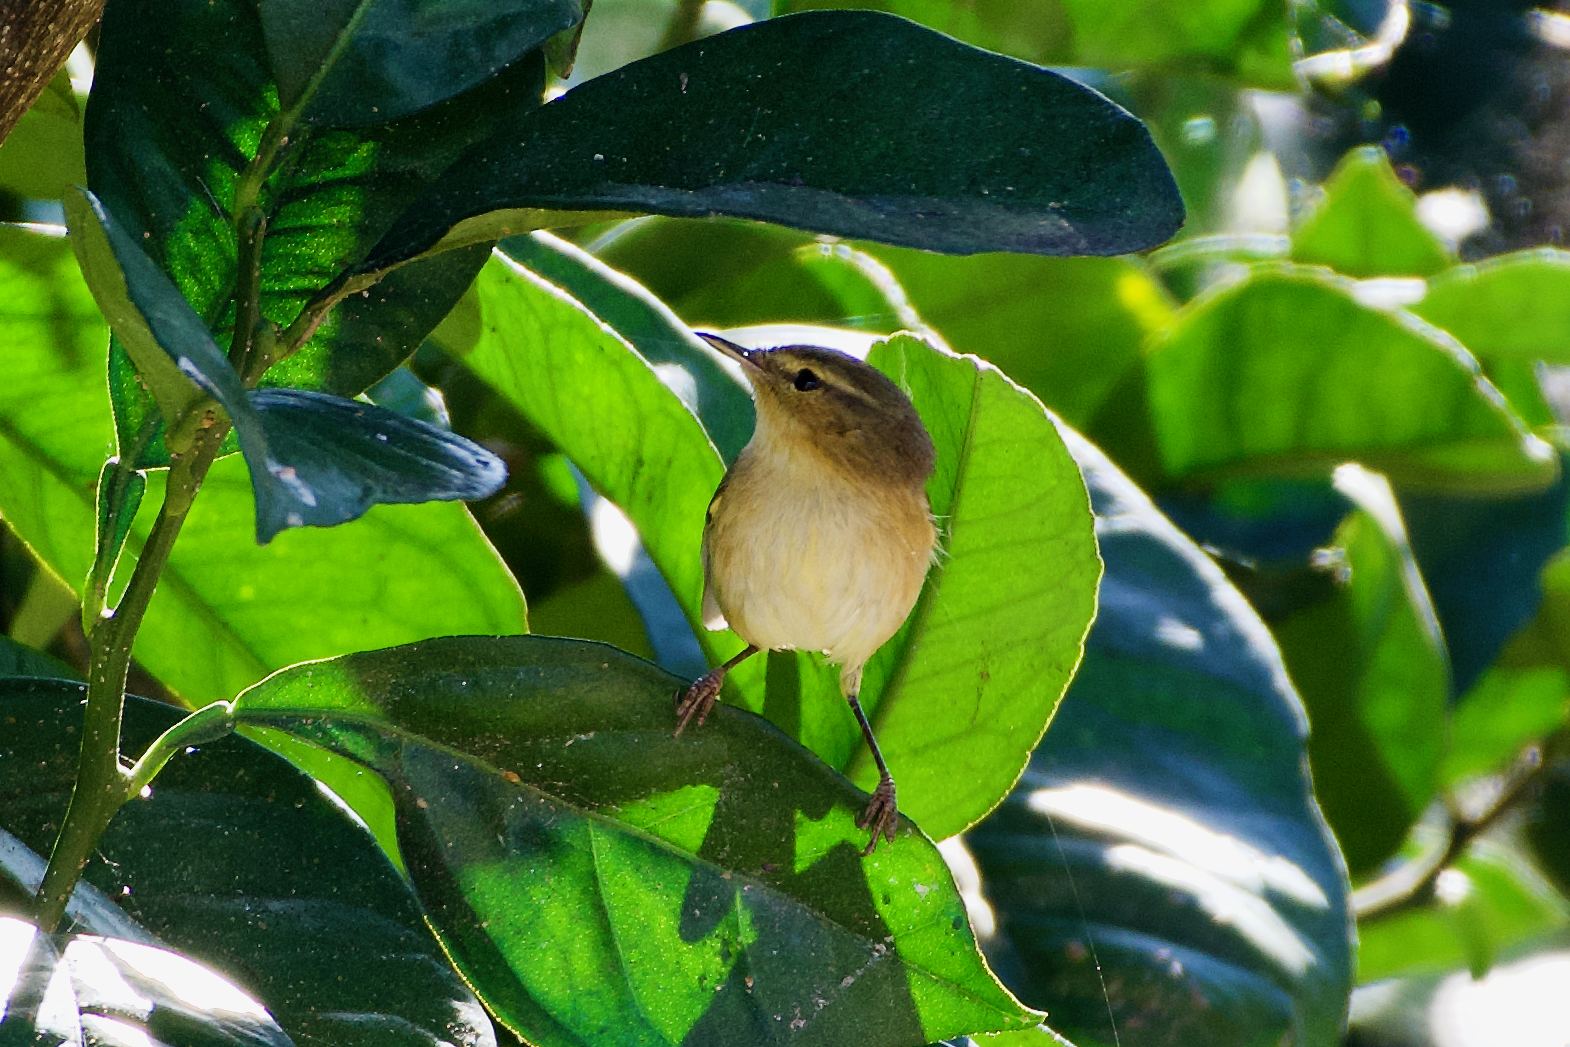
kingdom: Animalia
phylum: Chordata
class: Aves
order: Passeriformes
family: Phylloscopidae
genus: Phylloscopus
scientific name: Phylloscopus canariensis
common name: Canary islands chiffchaff
